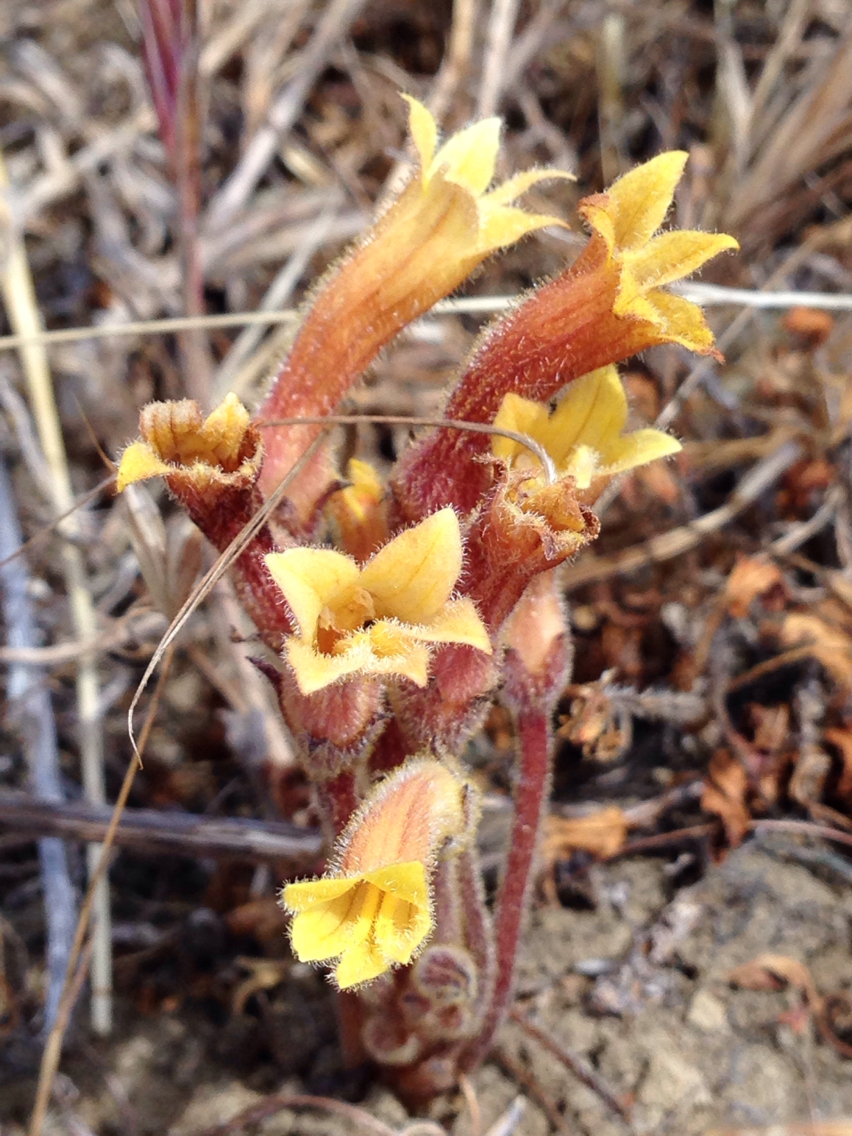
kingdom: Plantae
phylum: Tracheophyta
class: Magnoliopsida
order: Lamiales
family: Orobanchaceae
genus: Aphyllon
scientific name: Aphyllon franciscanum
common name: San francisco broomrape
